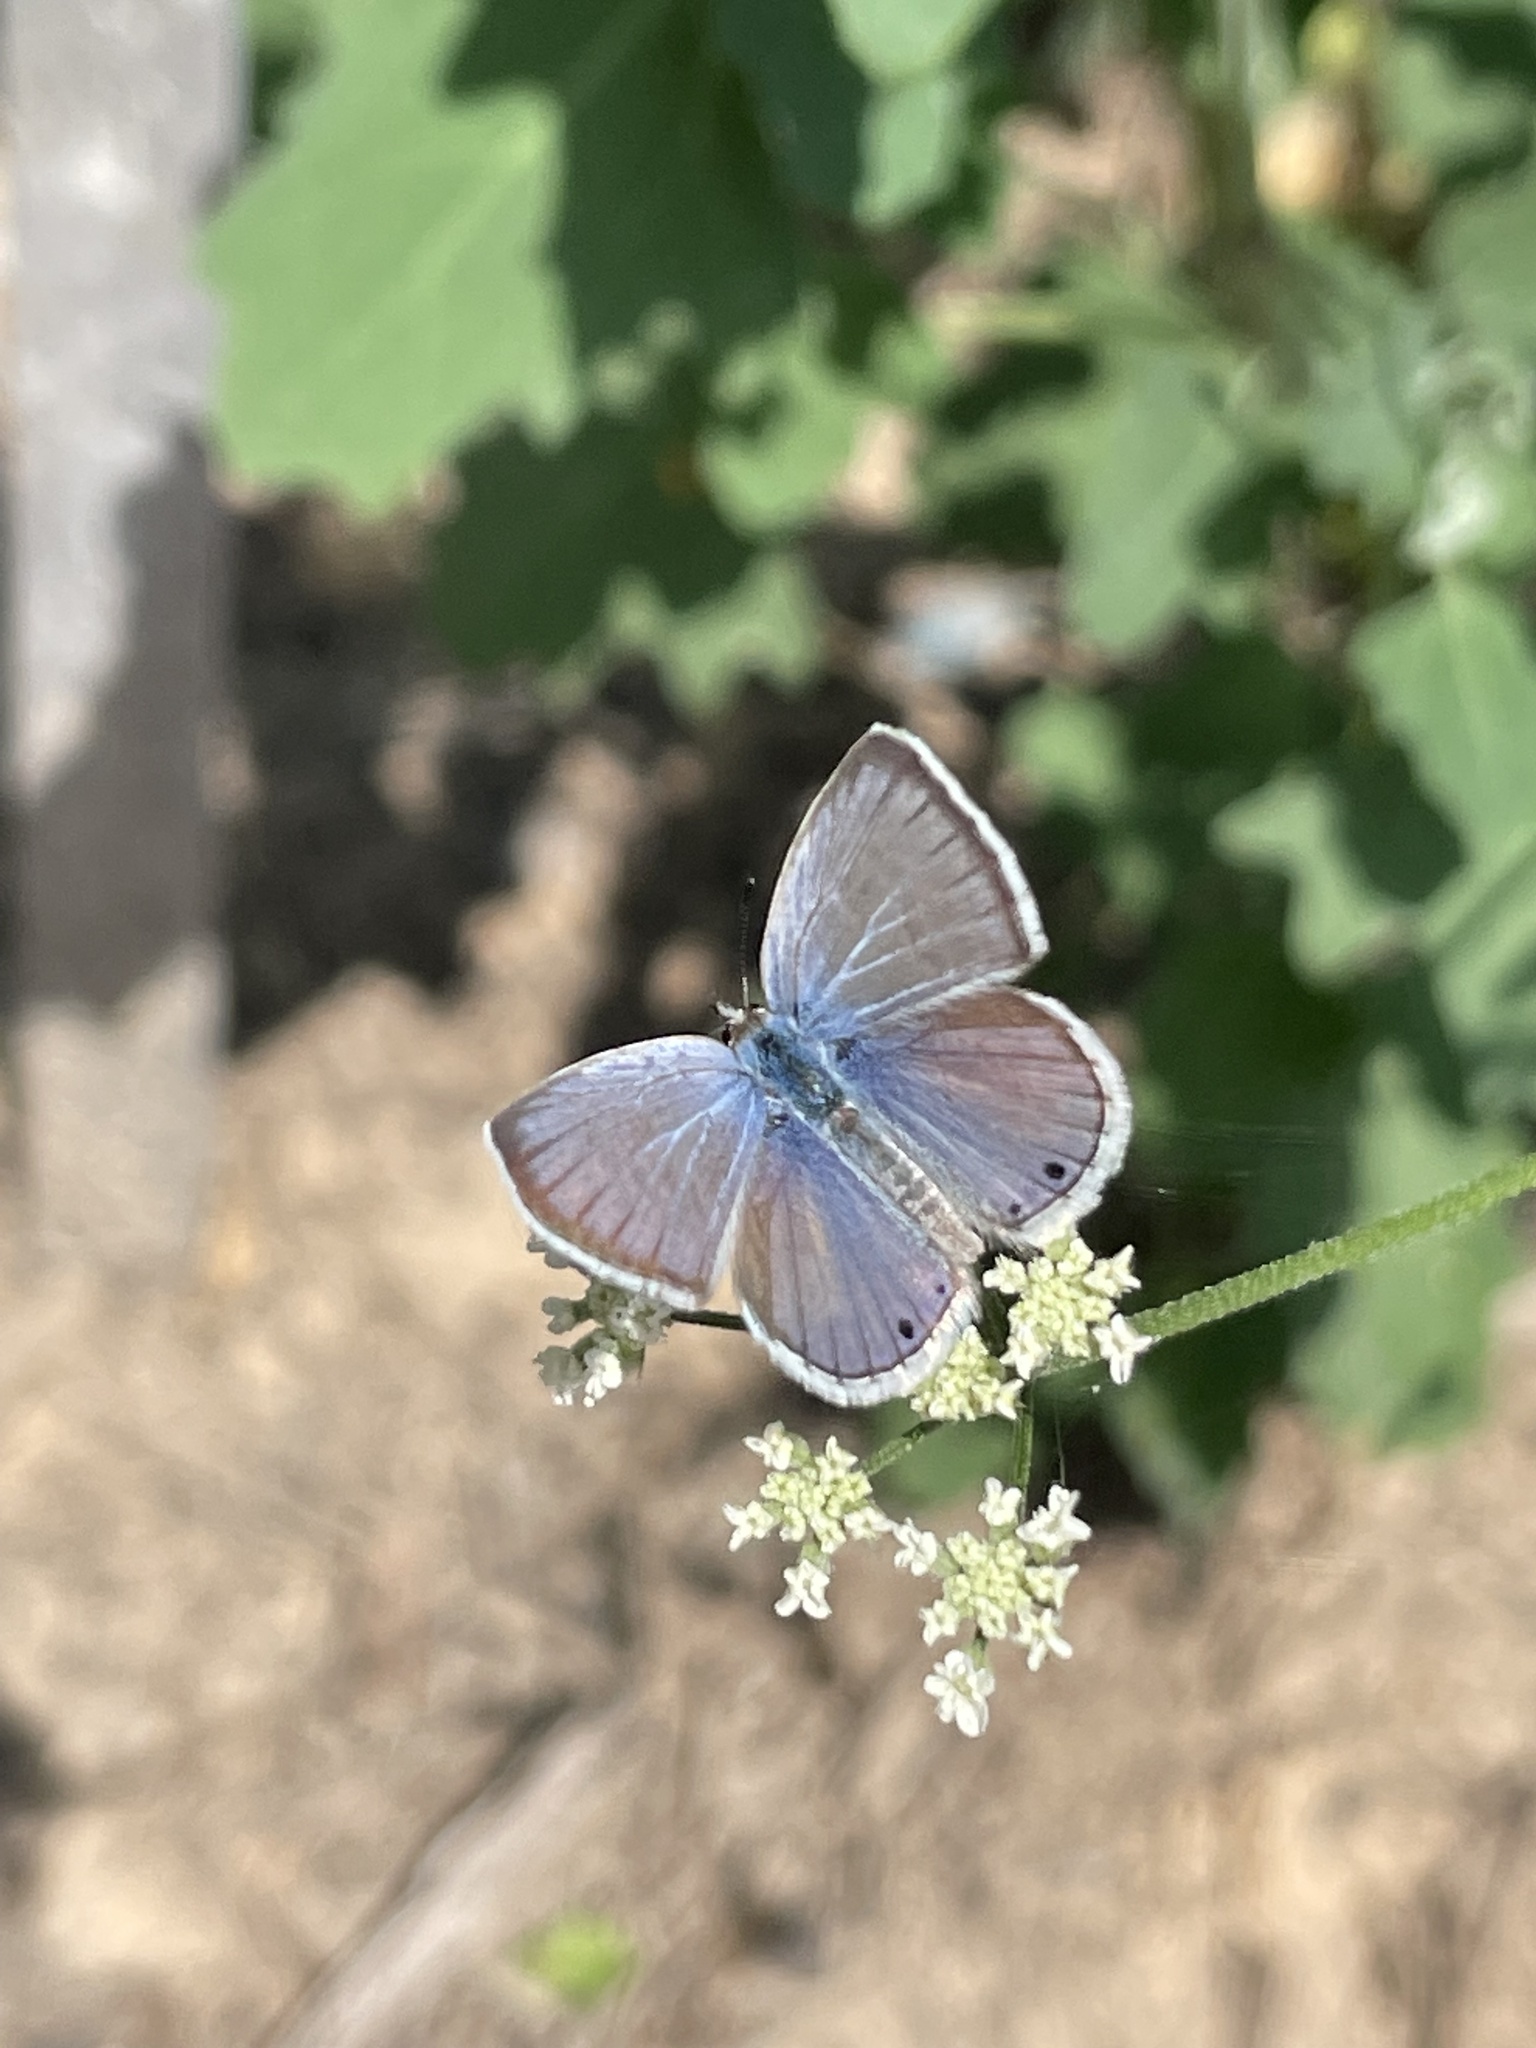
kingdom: Animalia
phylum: Arthropoda
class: Insecta
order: Lepidoptera
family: Lycaenidae
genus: Echinargus
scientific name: Echinargus isola
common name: Reakirt's blue
